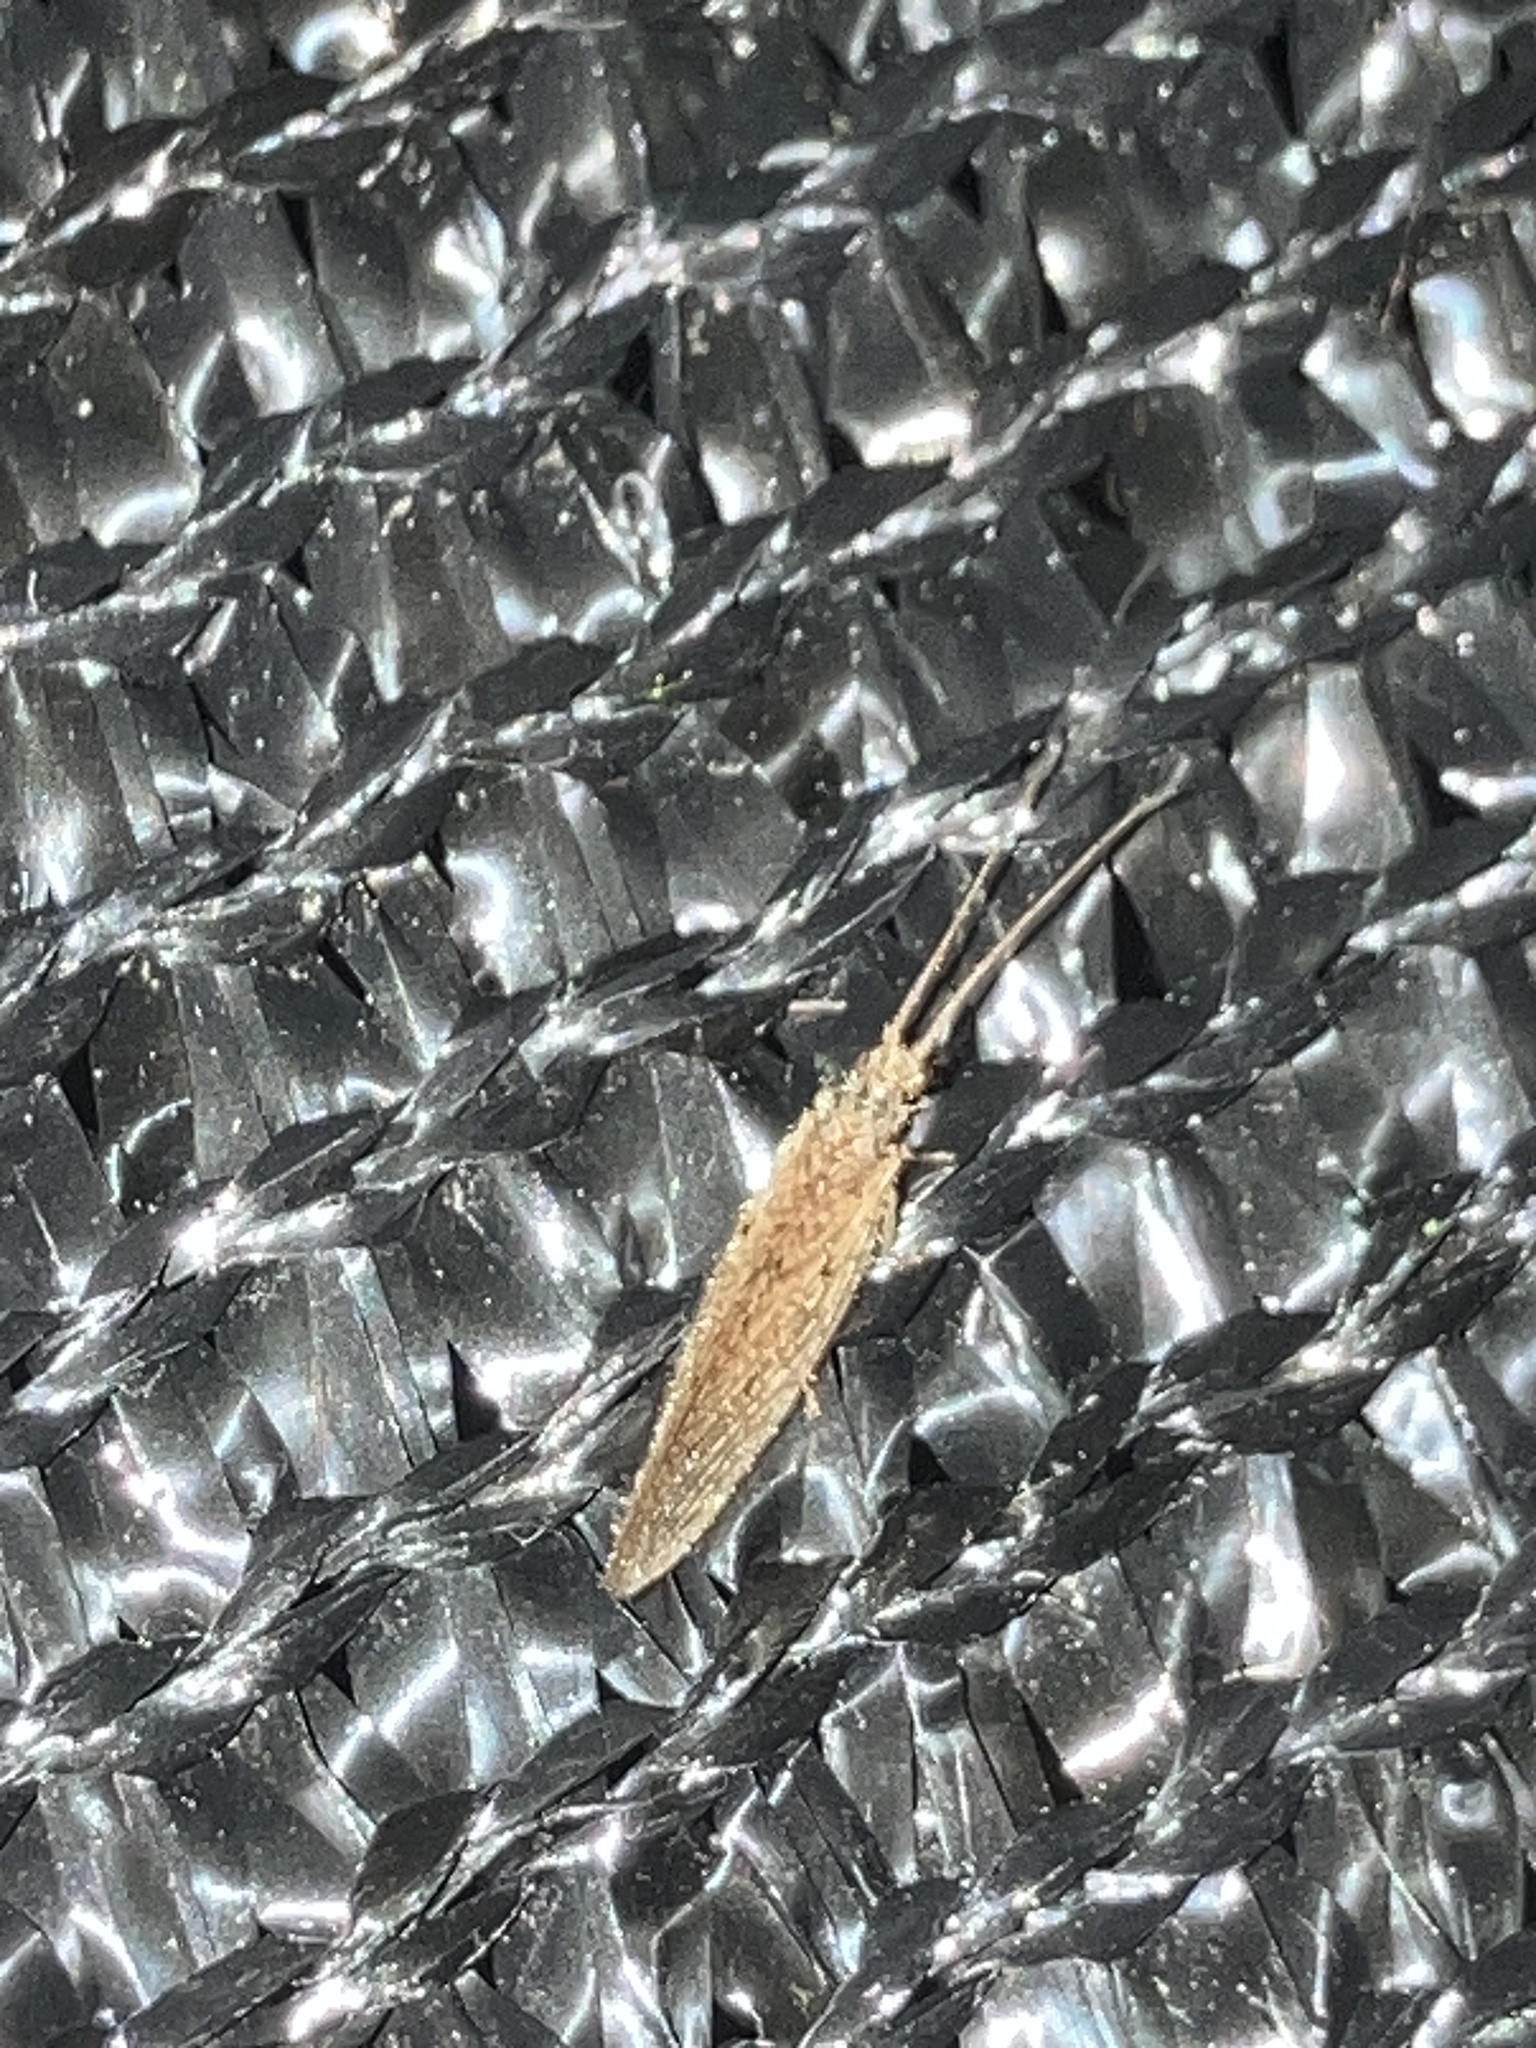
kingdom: Animalia
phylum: Arthropoda
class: Insecta
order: Neuroptera
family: Hemerobiidae
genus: Micromus
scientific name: Micromus subanticus
